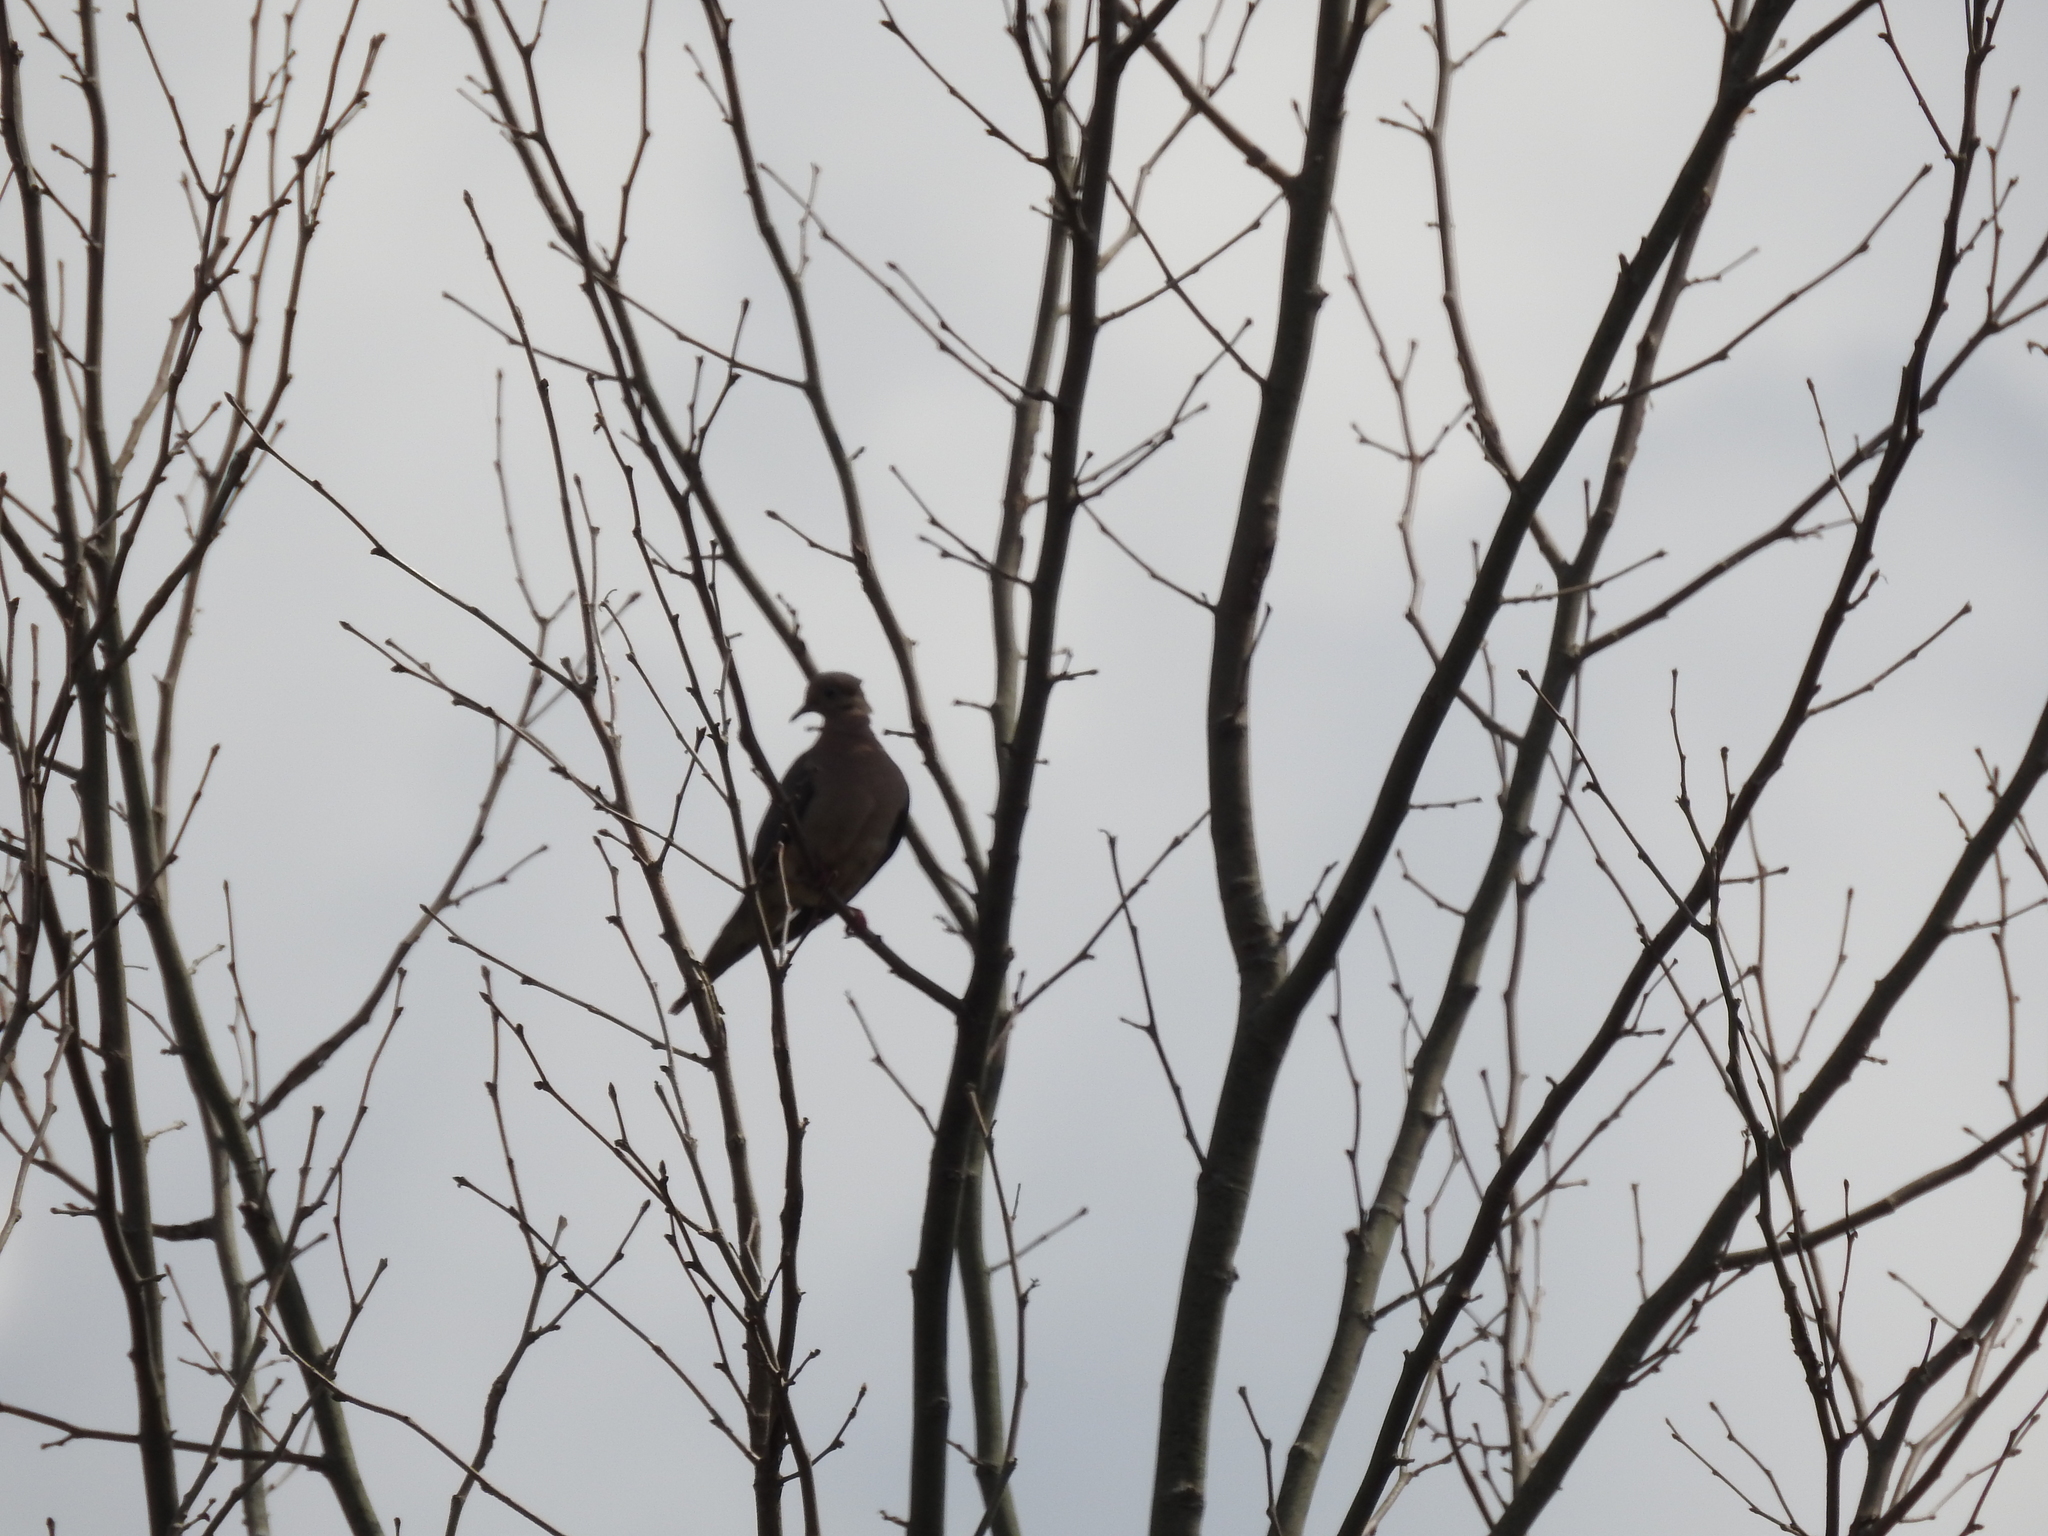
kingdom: Animalia
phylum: Chordata
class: Aves
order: Columbiformes
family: Columbidae
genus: Zenaida
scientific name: Zenaida macroura
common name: Mourning dove
